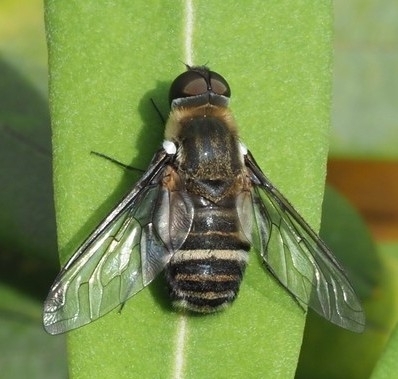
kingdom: Animalia
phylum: Arthropoda
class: Insecta
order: Diptera
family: Bombyliidae
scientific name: Bombyliidae
